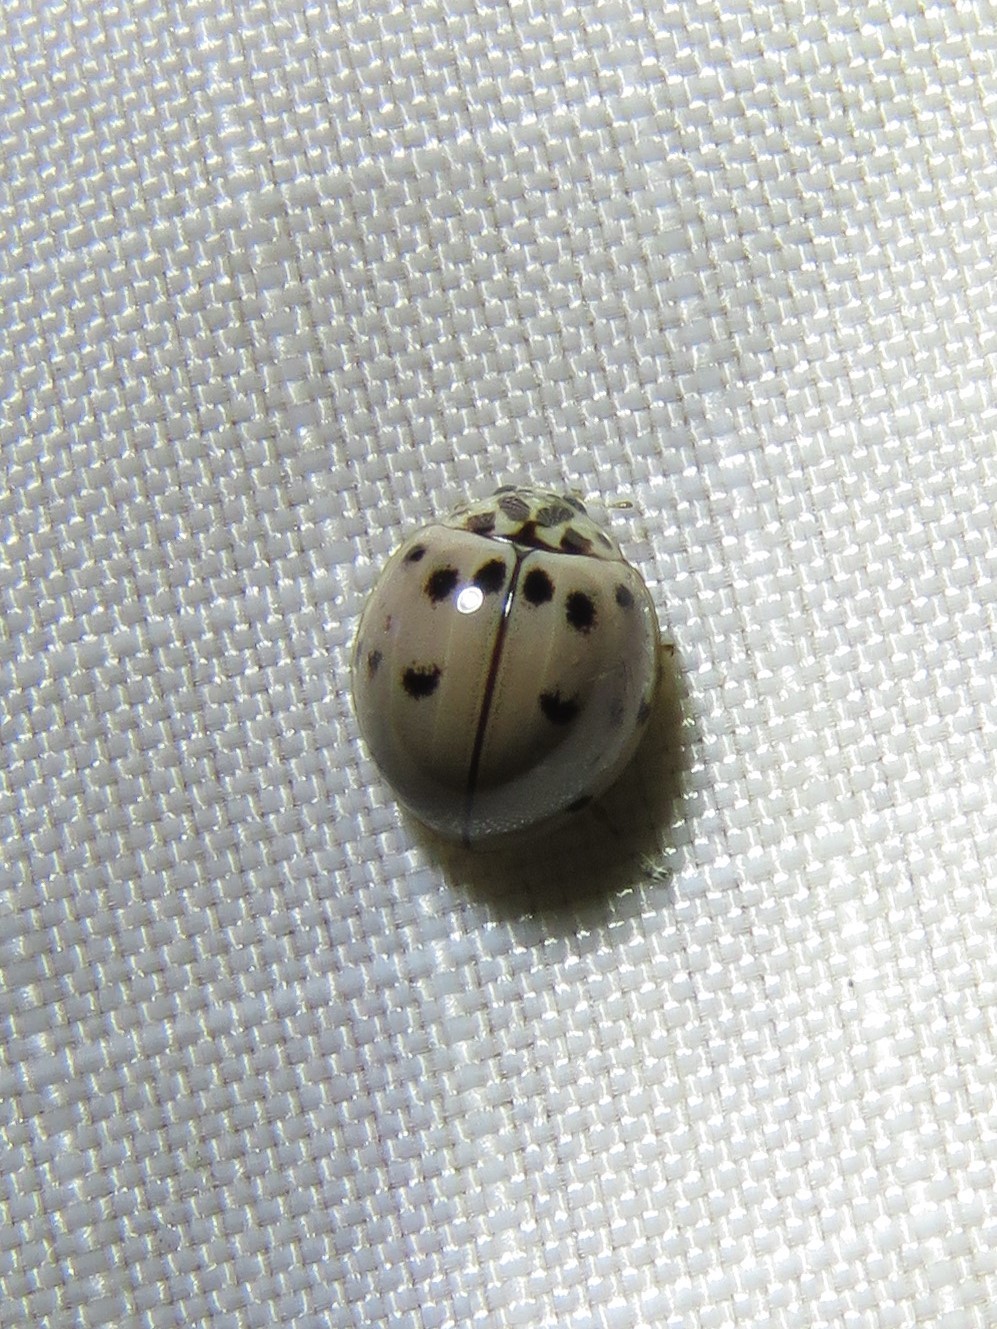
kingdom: Animalia
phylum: Arthropoda
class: Insecta
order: Coleoptera
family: Coccinellidae
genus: Olla
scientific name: Olla v-nigrum
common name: Ashy gray lady beetle
